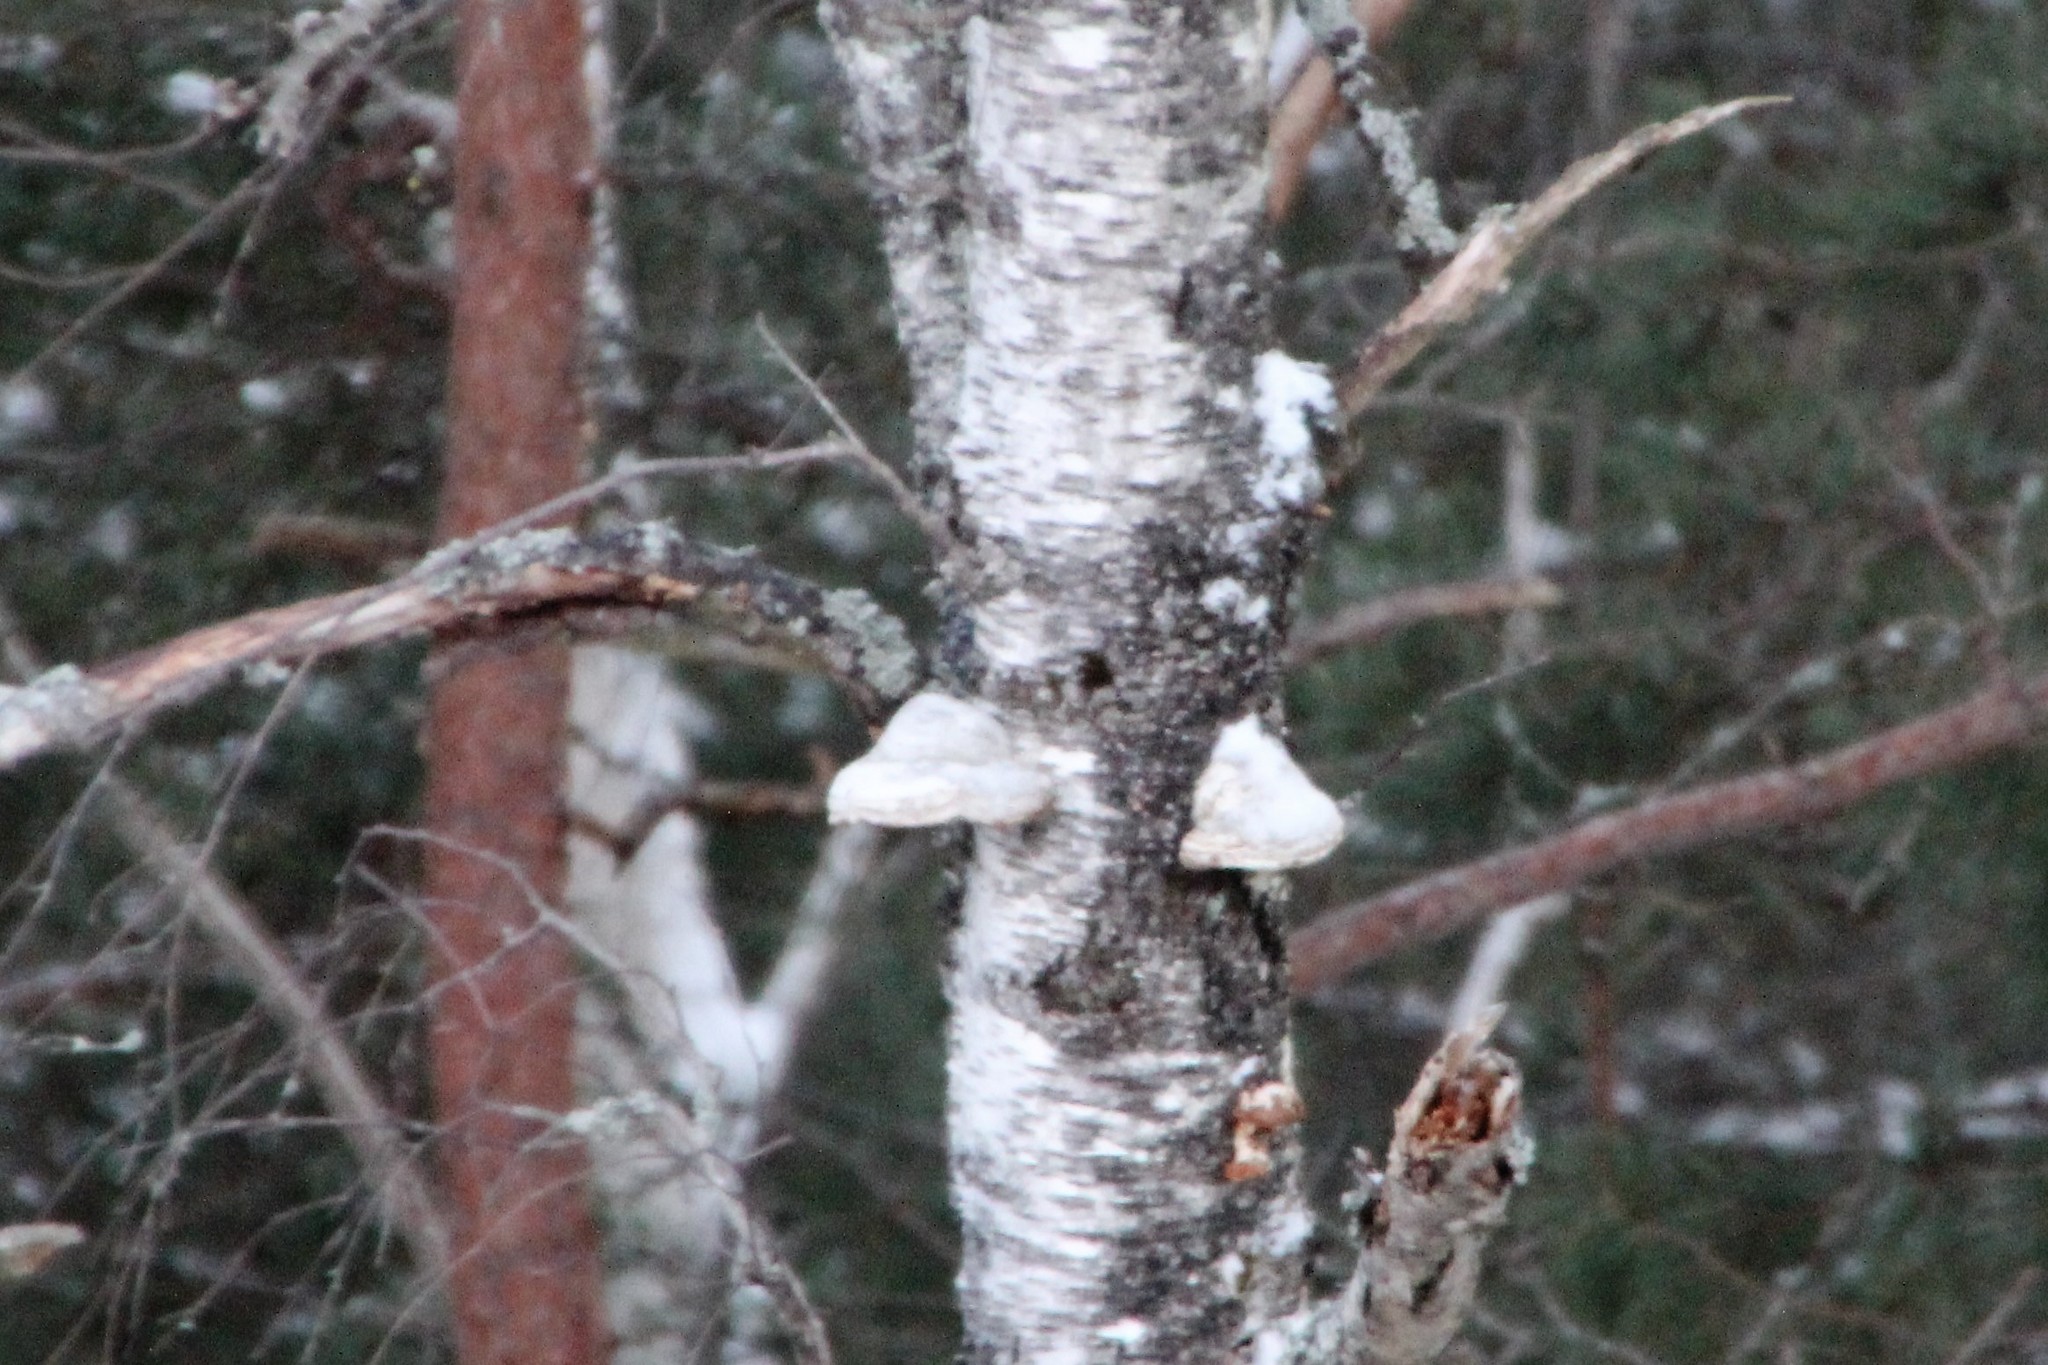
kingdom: Fungi
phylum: Basidiomycota
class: Agaricomycetes
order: Polyporales
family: Polyporaceae
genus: Fomes
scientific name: Fomes fomentarius
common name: Hoof fungus
